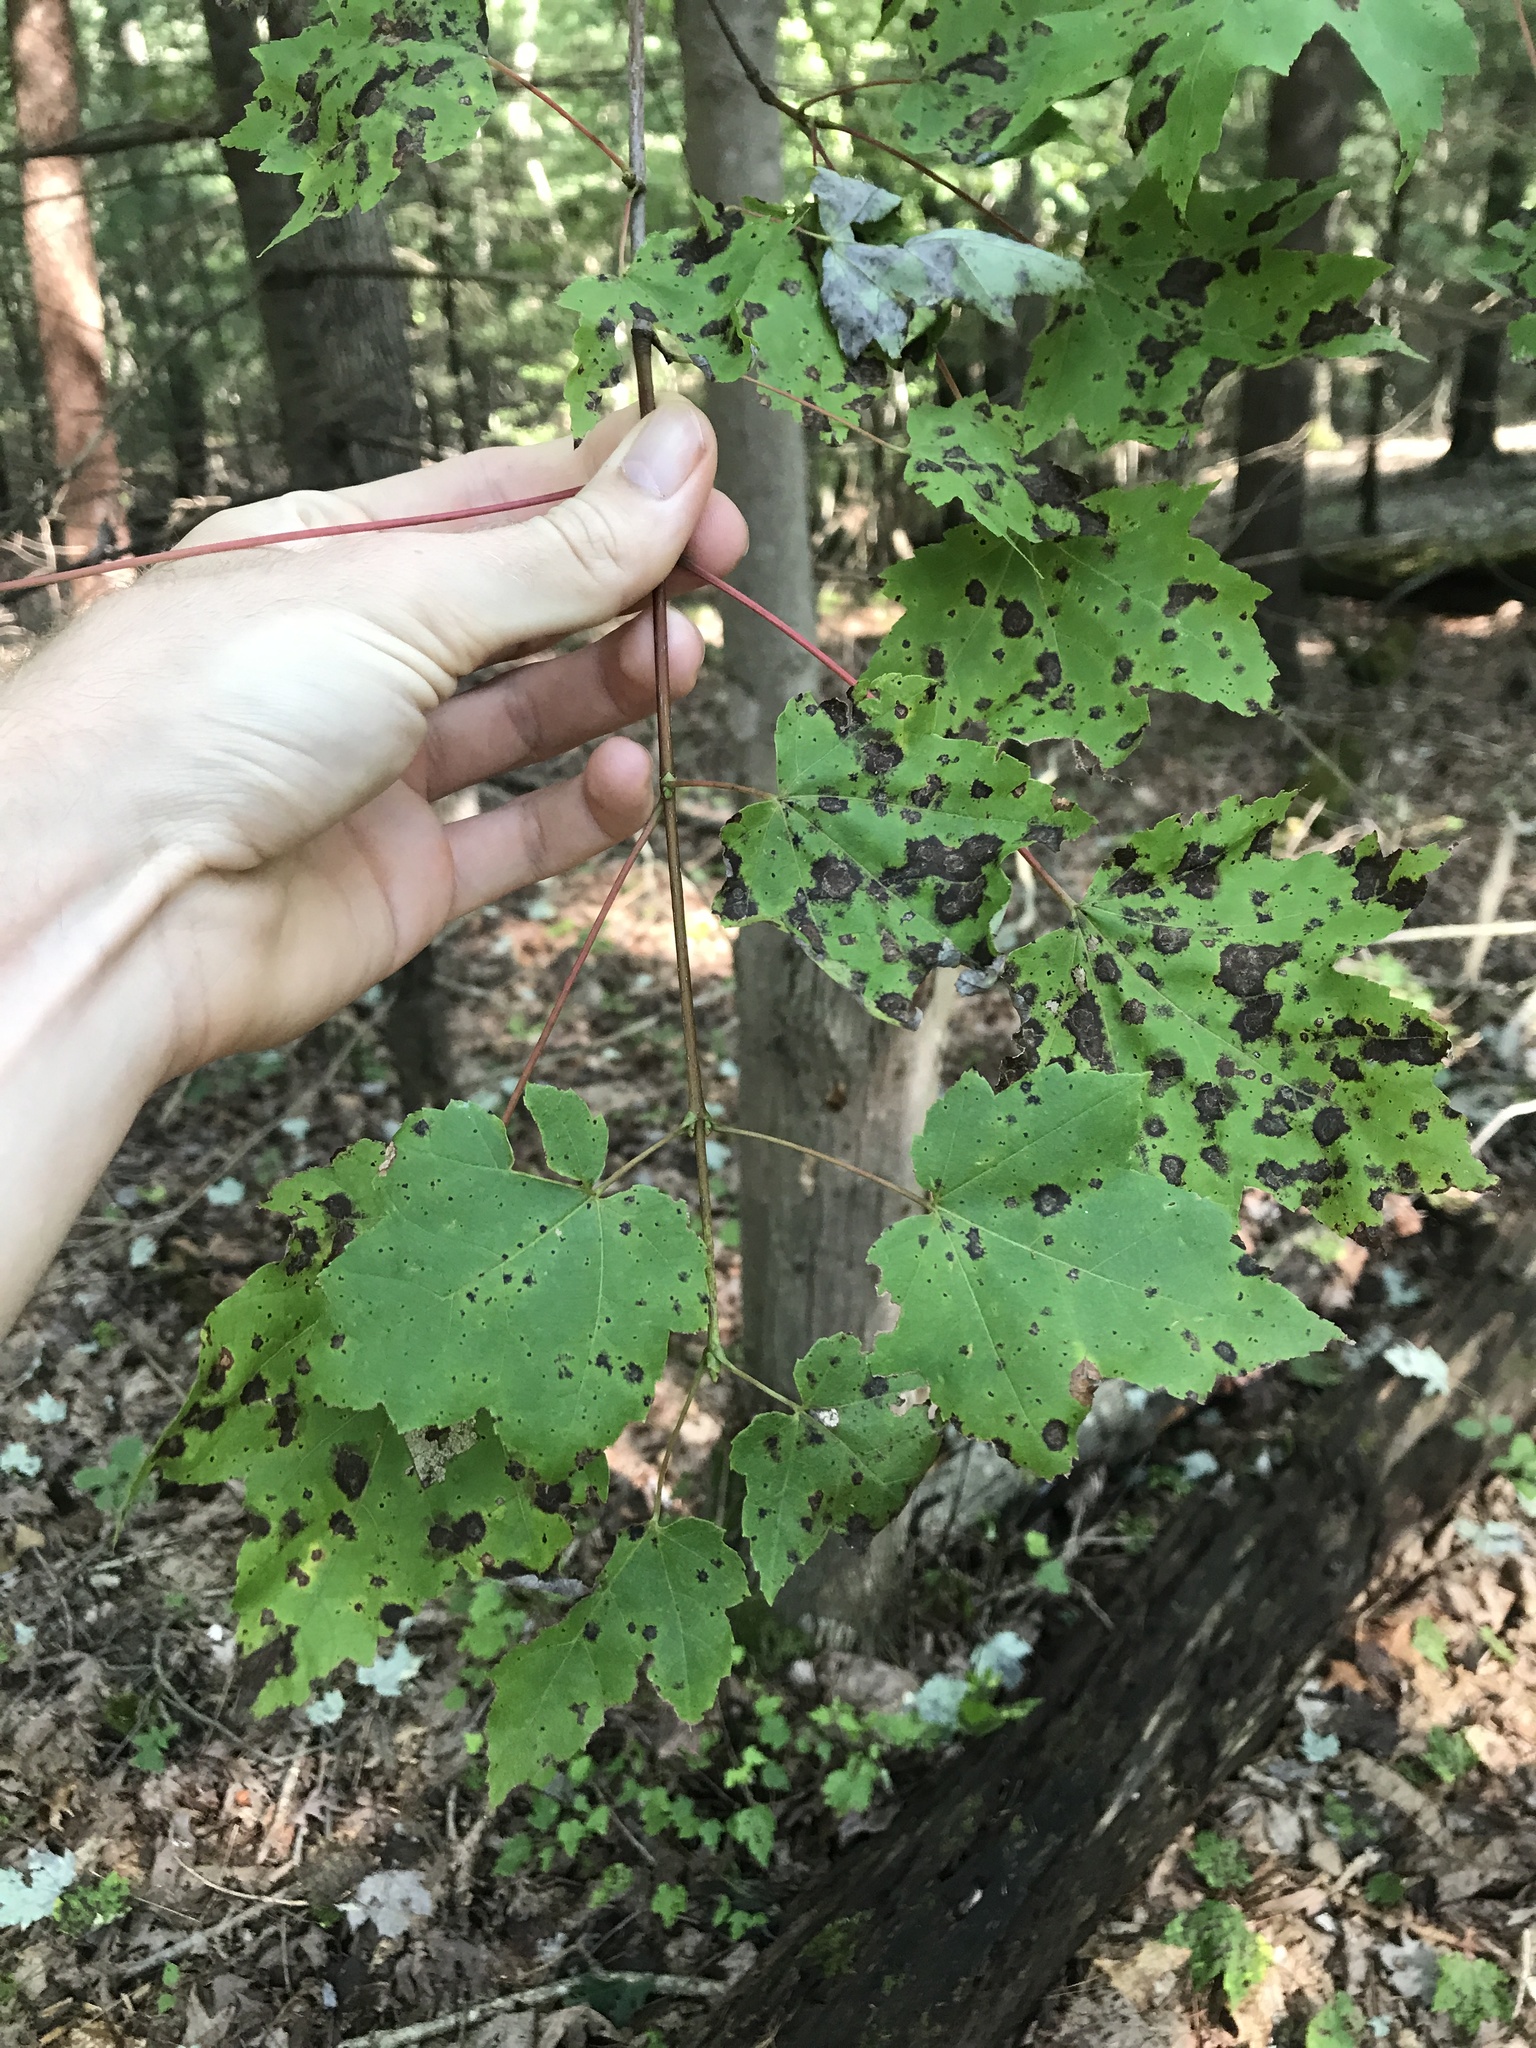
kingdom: Plantae
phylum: Tracheophyta
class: Magnoliopsida
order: Sapindales
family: Sapindaceae
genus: Acer
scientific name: Acer rubrum
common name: Red maple
